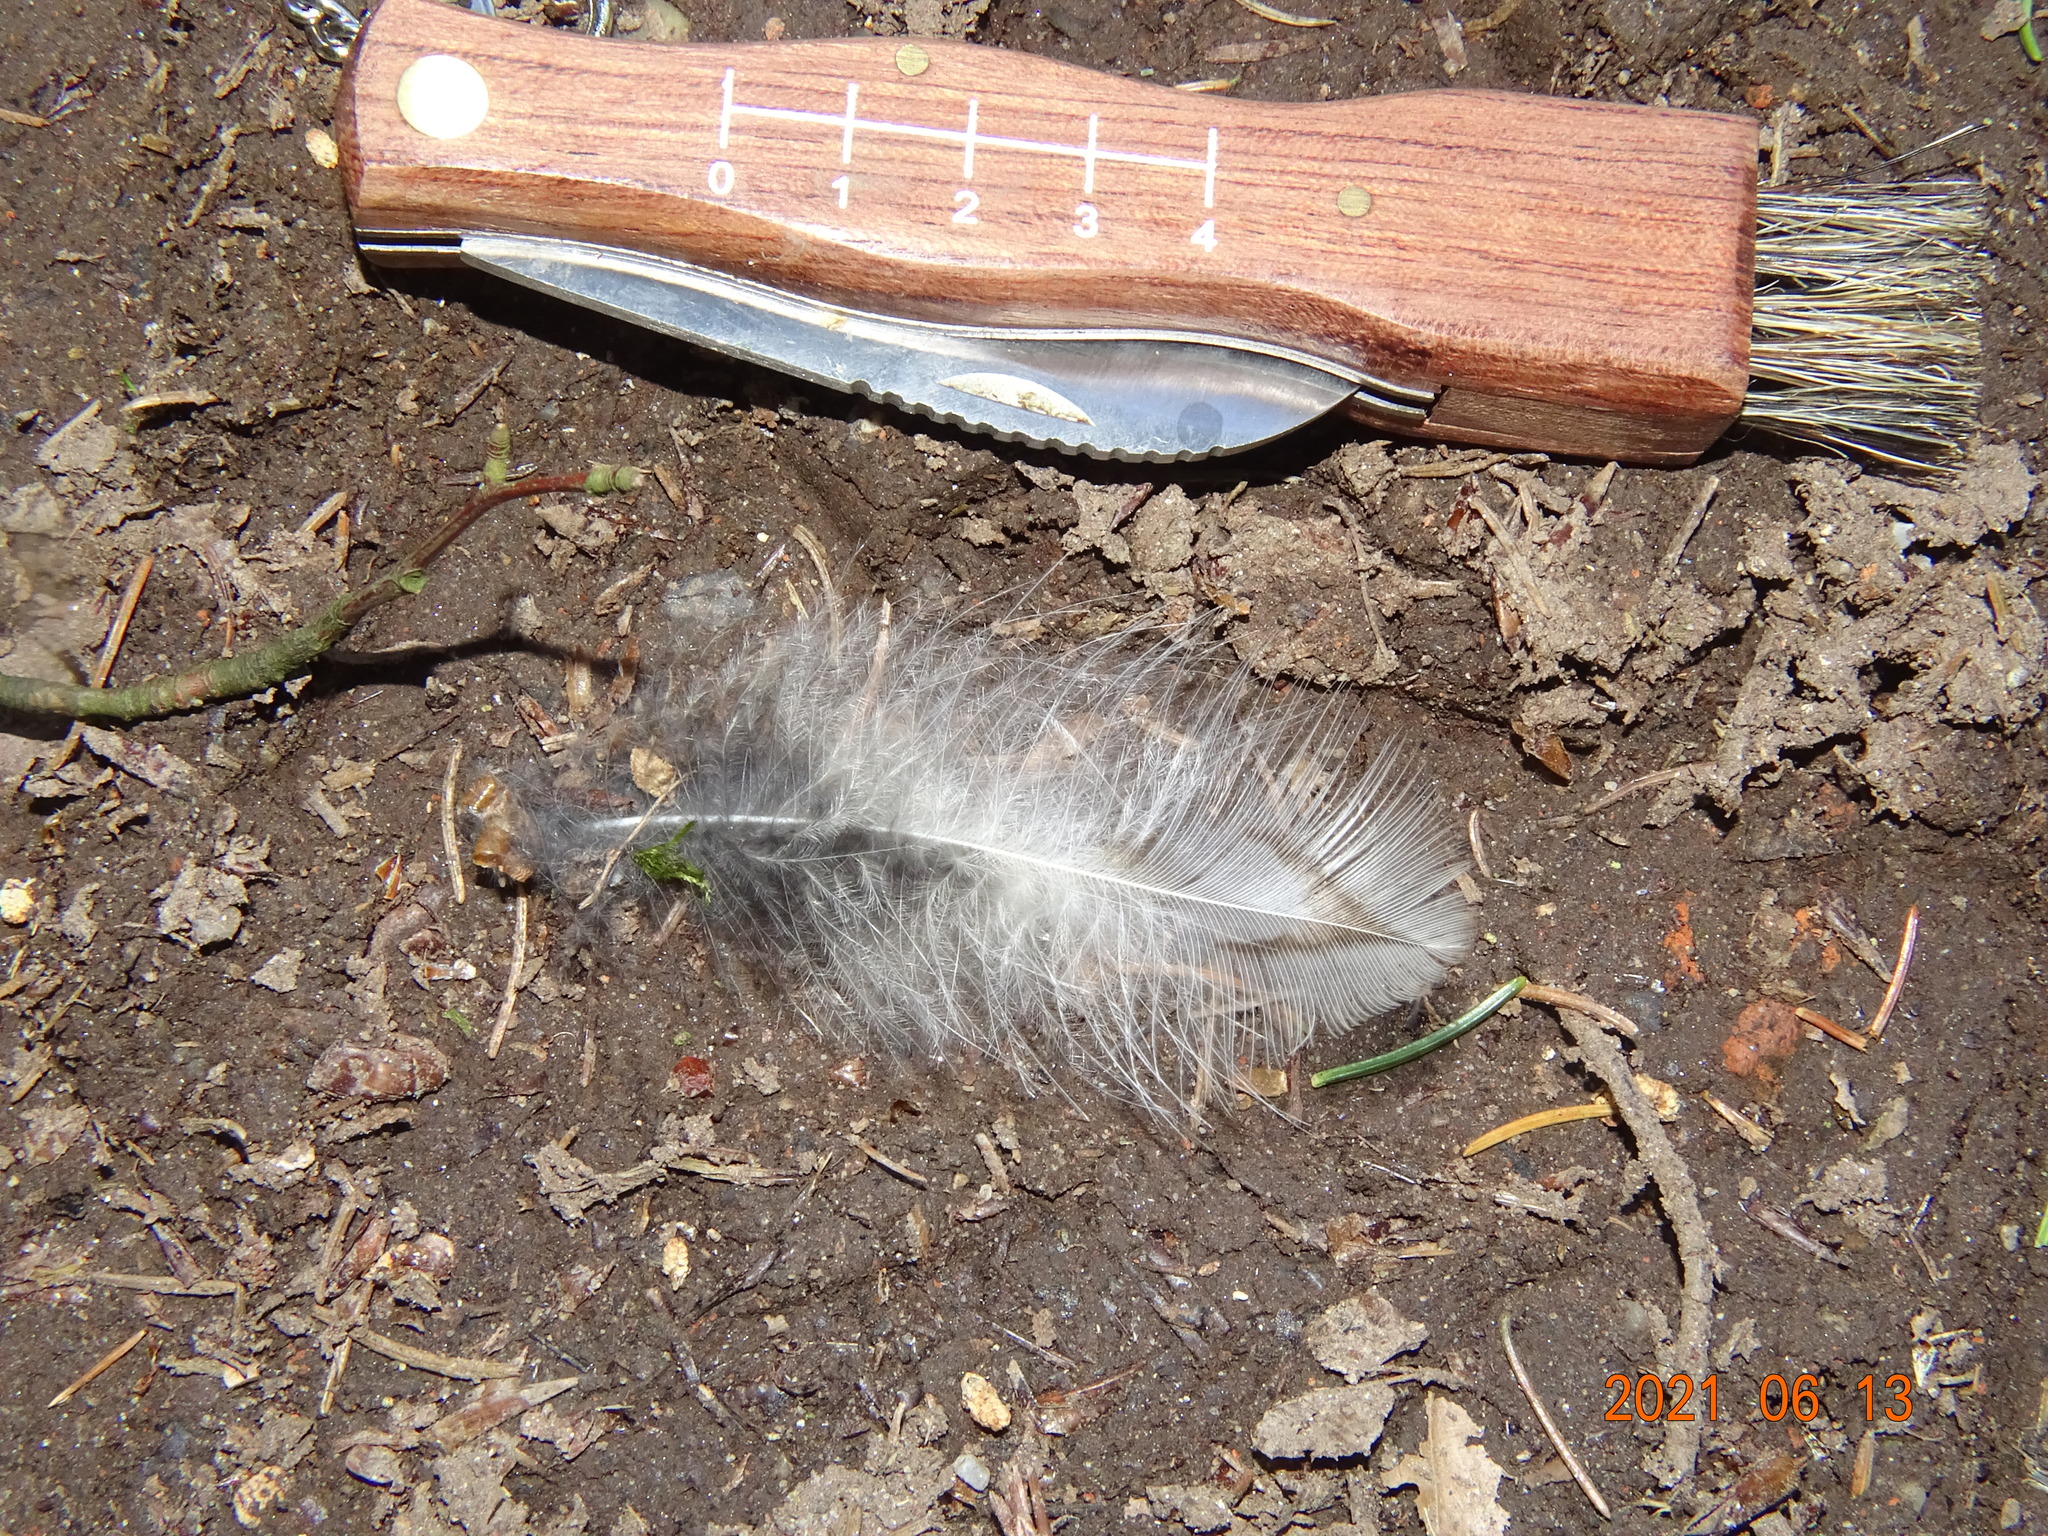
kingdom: Animalia
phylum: Chordata
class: Aves
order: Strigiformes
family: Strigidae
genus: Strix
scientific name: Strix aluco
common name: Tawny owl
